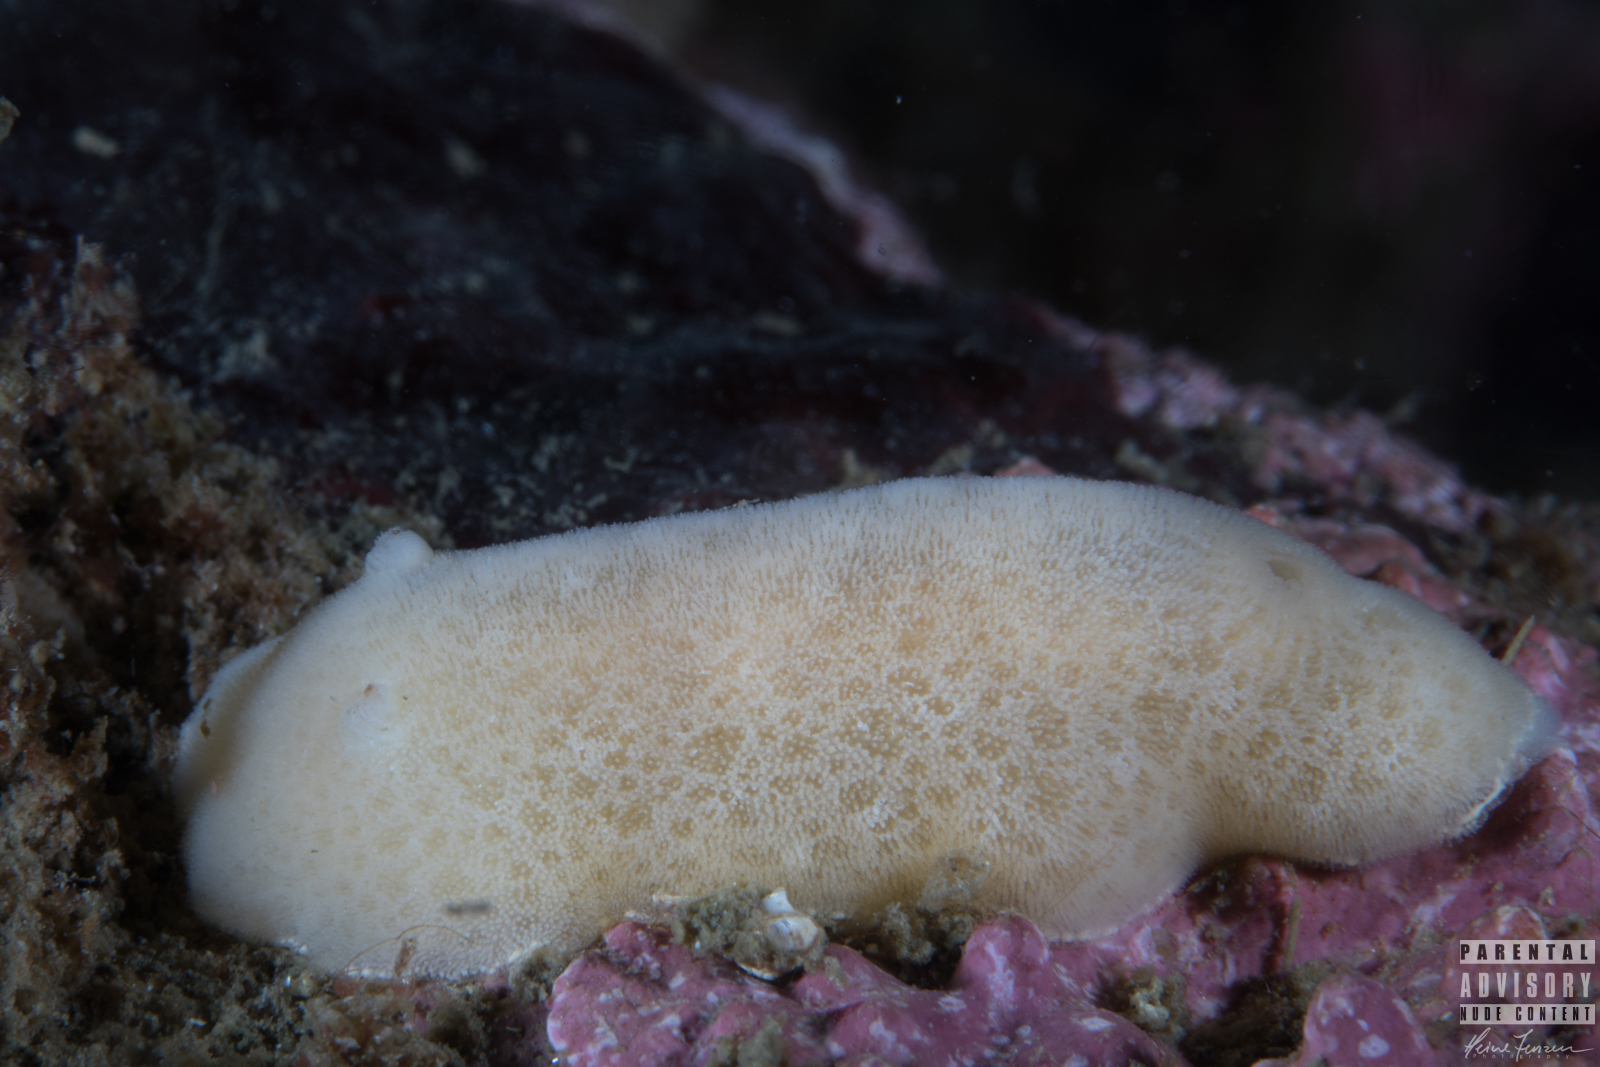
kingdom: Animalia
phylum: Mollusca
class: Gastropoda
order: Nudibranchia
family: Discodorididae
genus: Jorunna
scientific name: Jorunna tomentosa
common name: Grey sea slug
